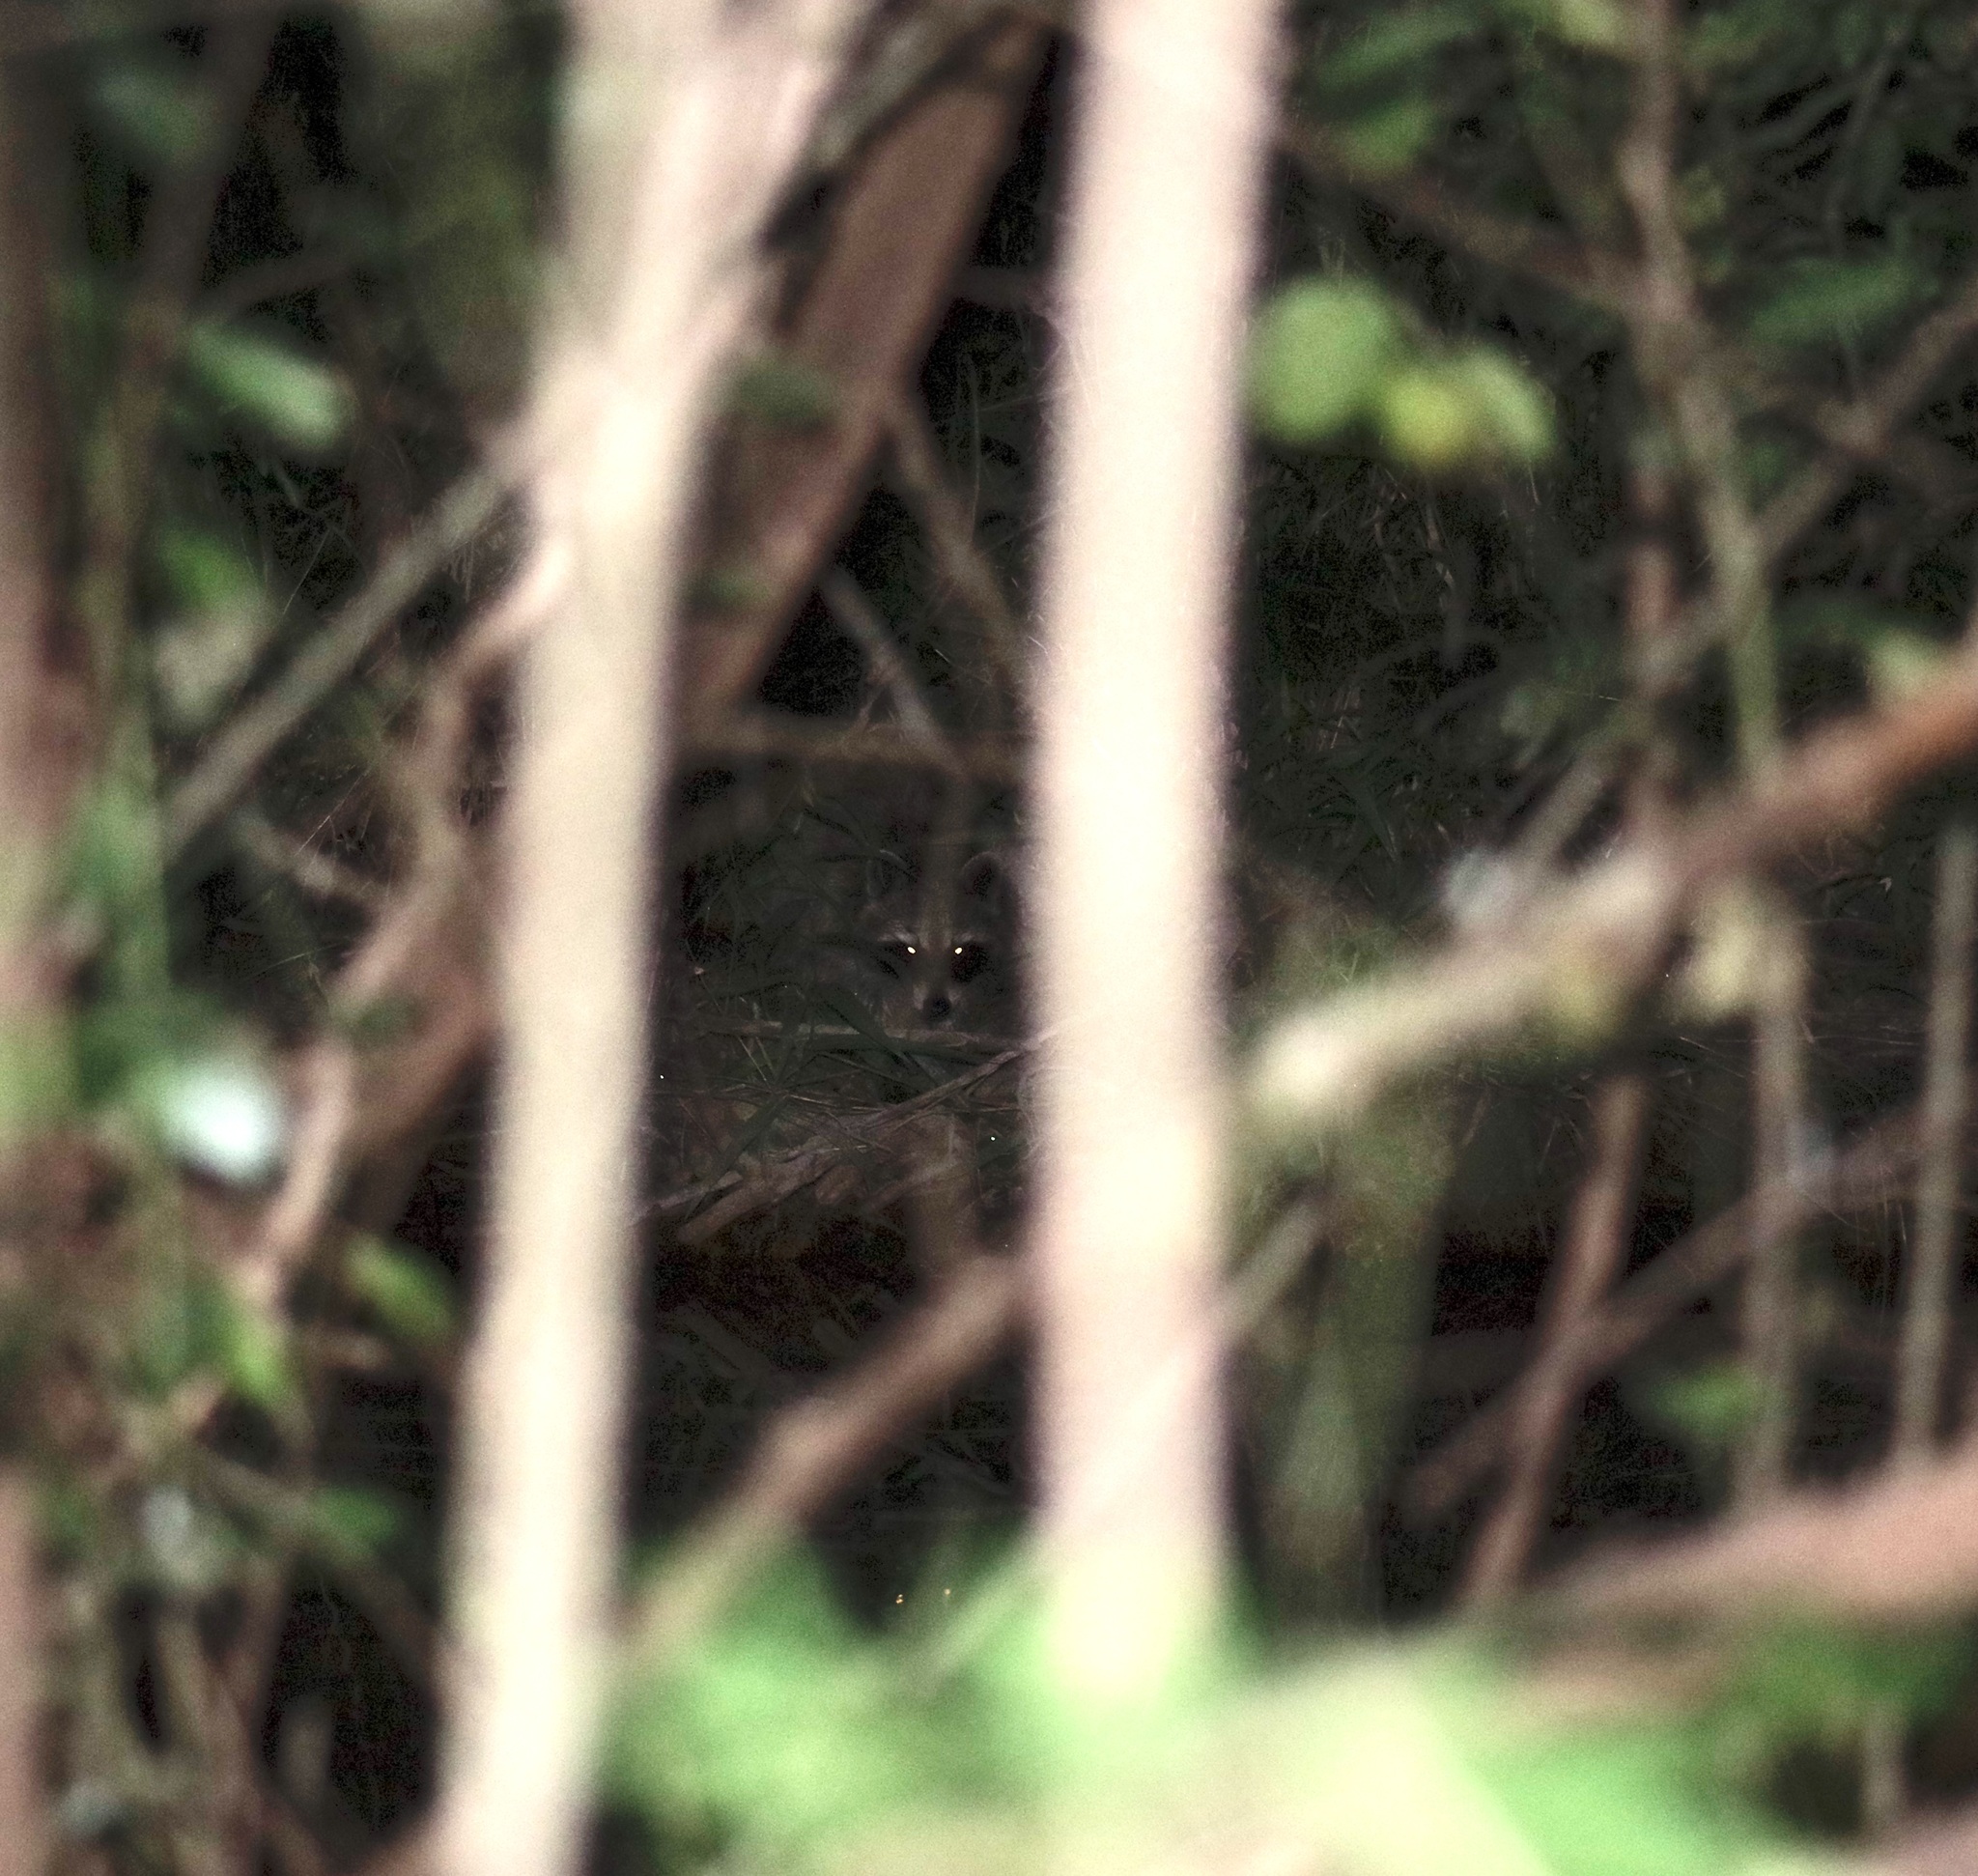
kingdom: Animalia
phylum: Chordata
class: Mammalia
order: Carnivora
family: Procyonidae
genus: Procyon
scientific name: Procyon lotor
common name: Raccoon
